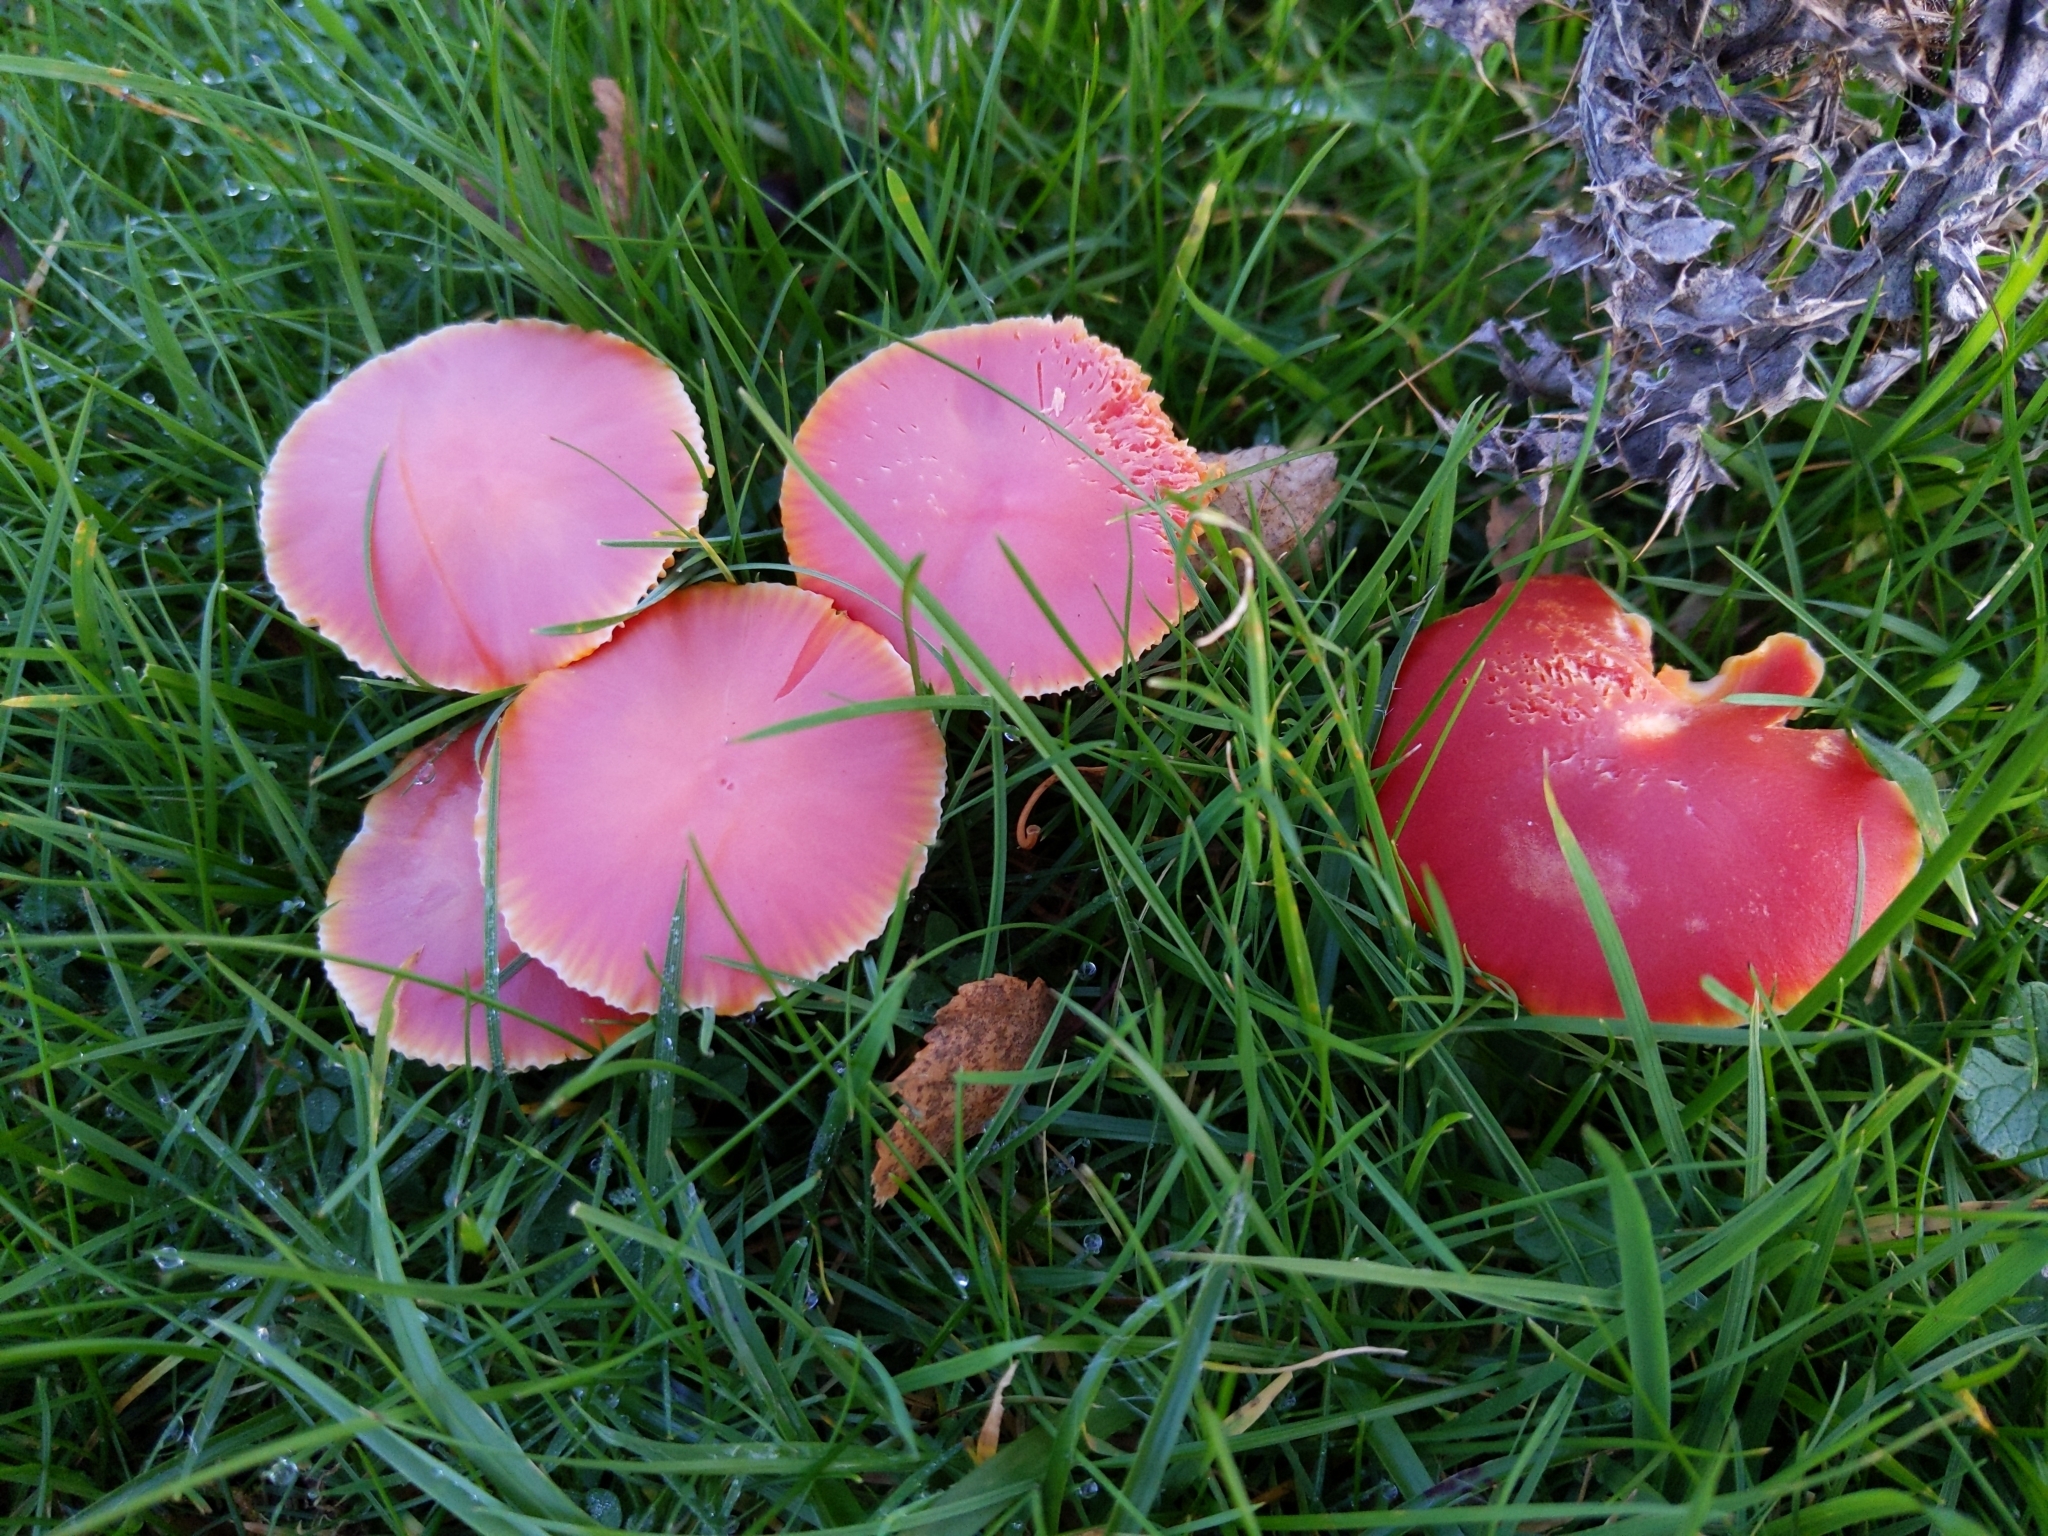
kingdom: Fungi
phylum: Basidiomycota
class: Agaricomycetes
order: Agaricales
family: Hygrophoraceae
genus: Hygrocybe
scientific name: Hygrocybe coccinea
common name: Scarlet hood
